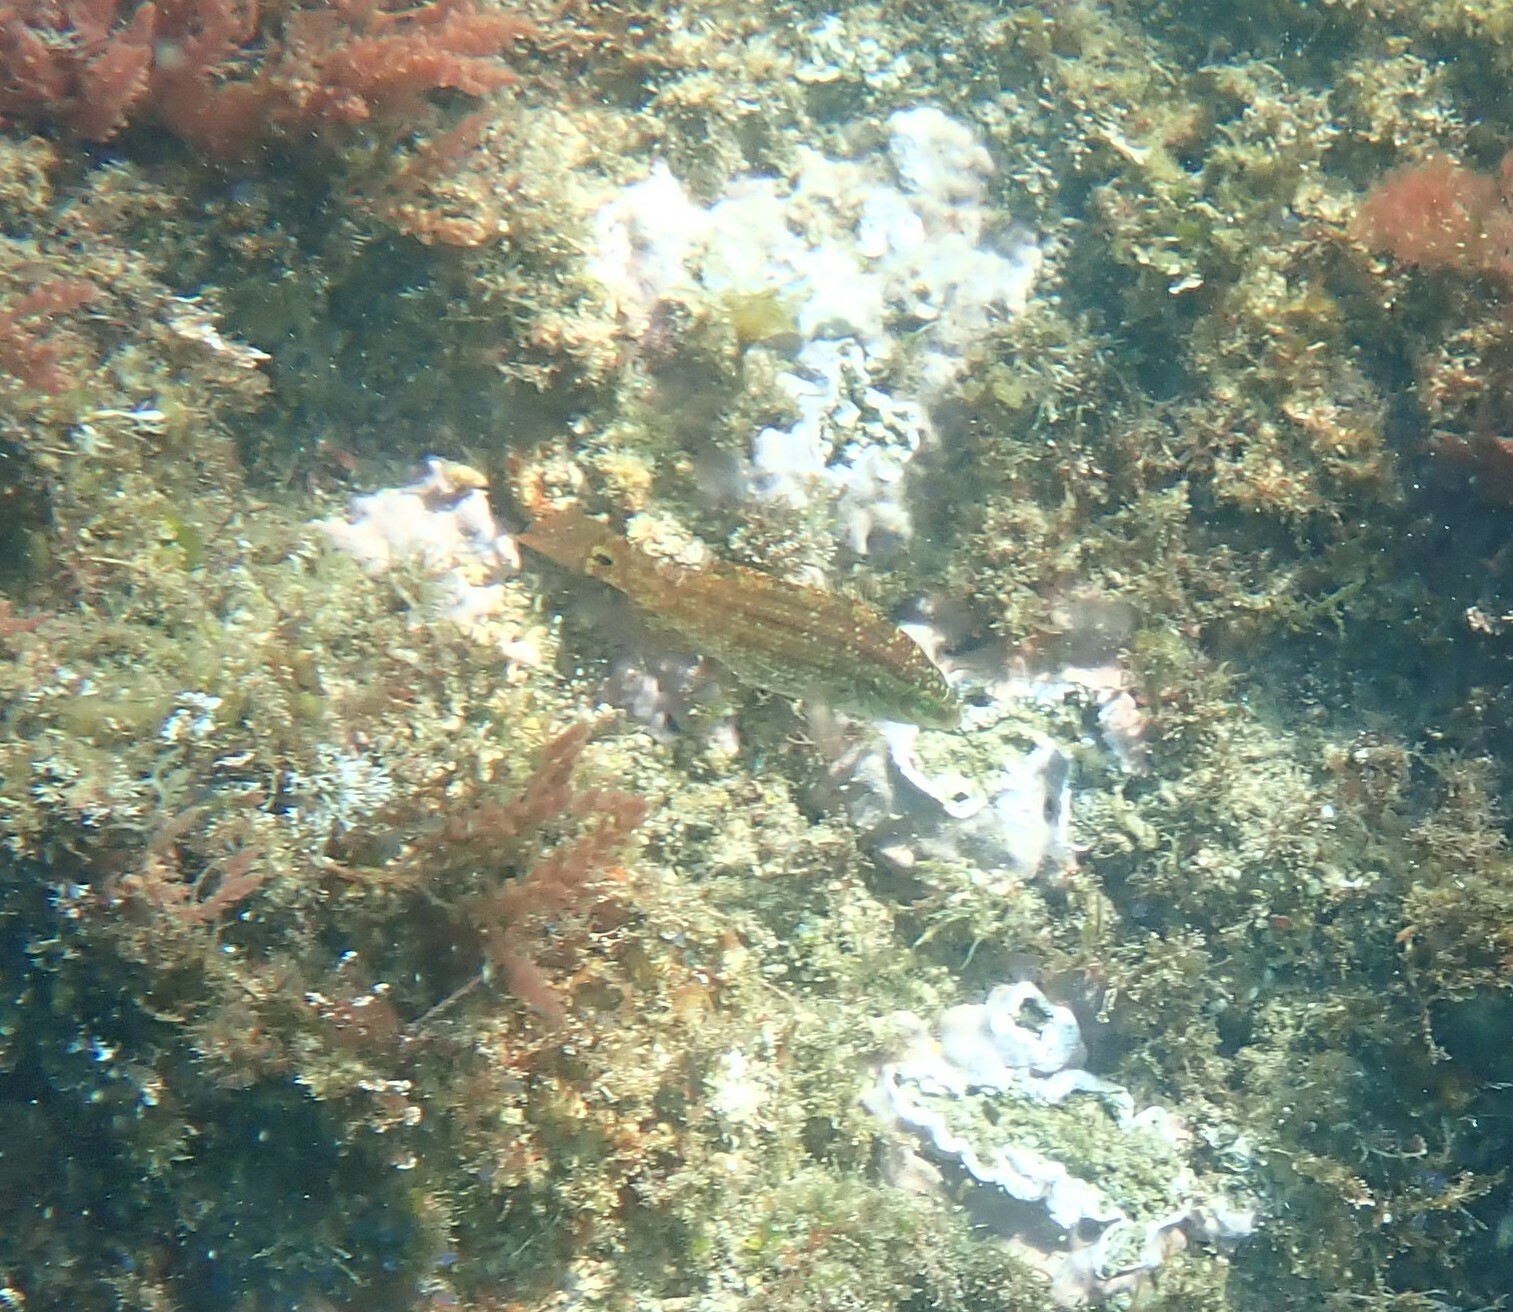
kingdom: Animalia
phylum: Chordata
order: Perciformes
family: Labridae
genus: Symphodus
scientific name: Symphodus melops
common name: Corkwing
